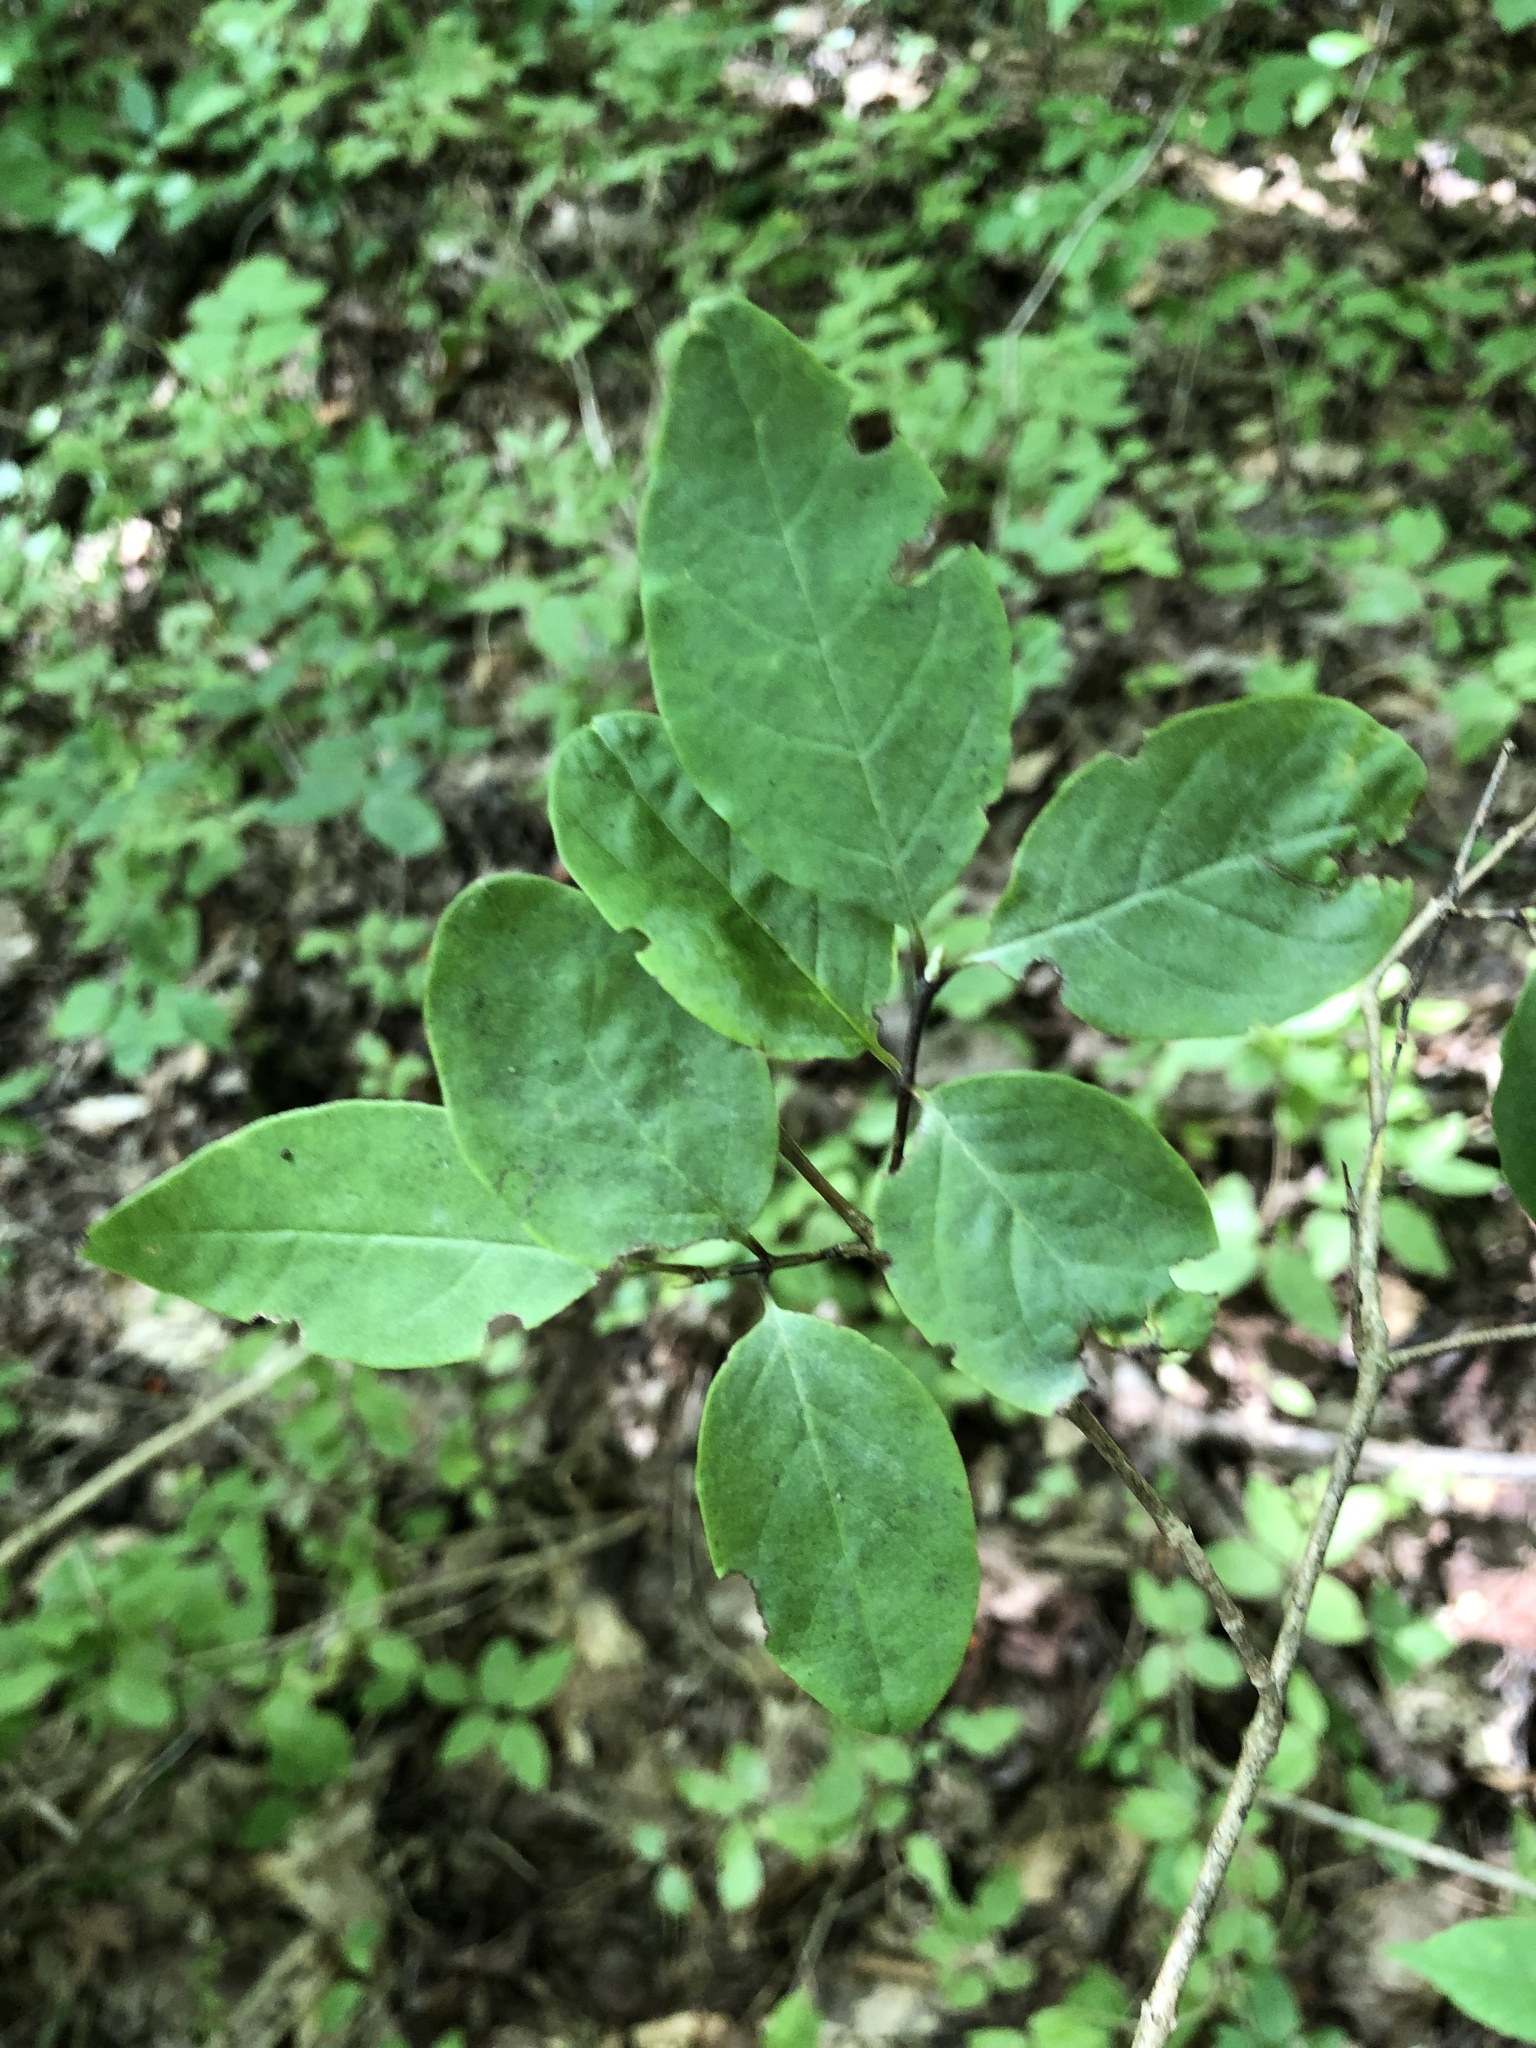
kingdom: Plantae
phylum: Tracheophyta
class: Magnoliopsida
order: Dipsacales
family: Caprifoliaceae
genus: Lonicera
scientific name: Lonicera canadensis
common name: American fly-honeysuckle
